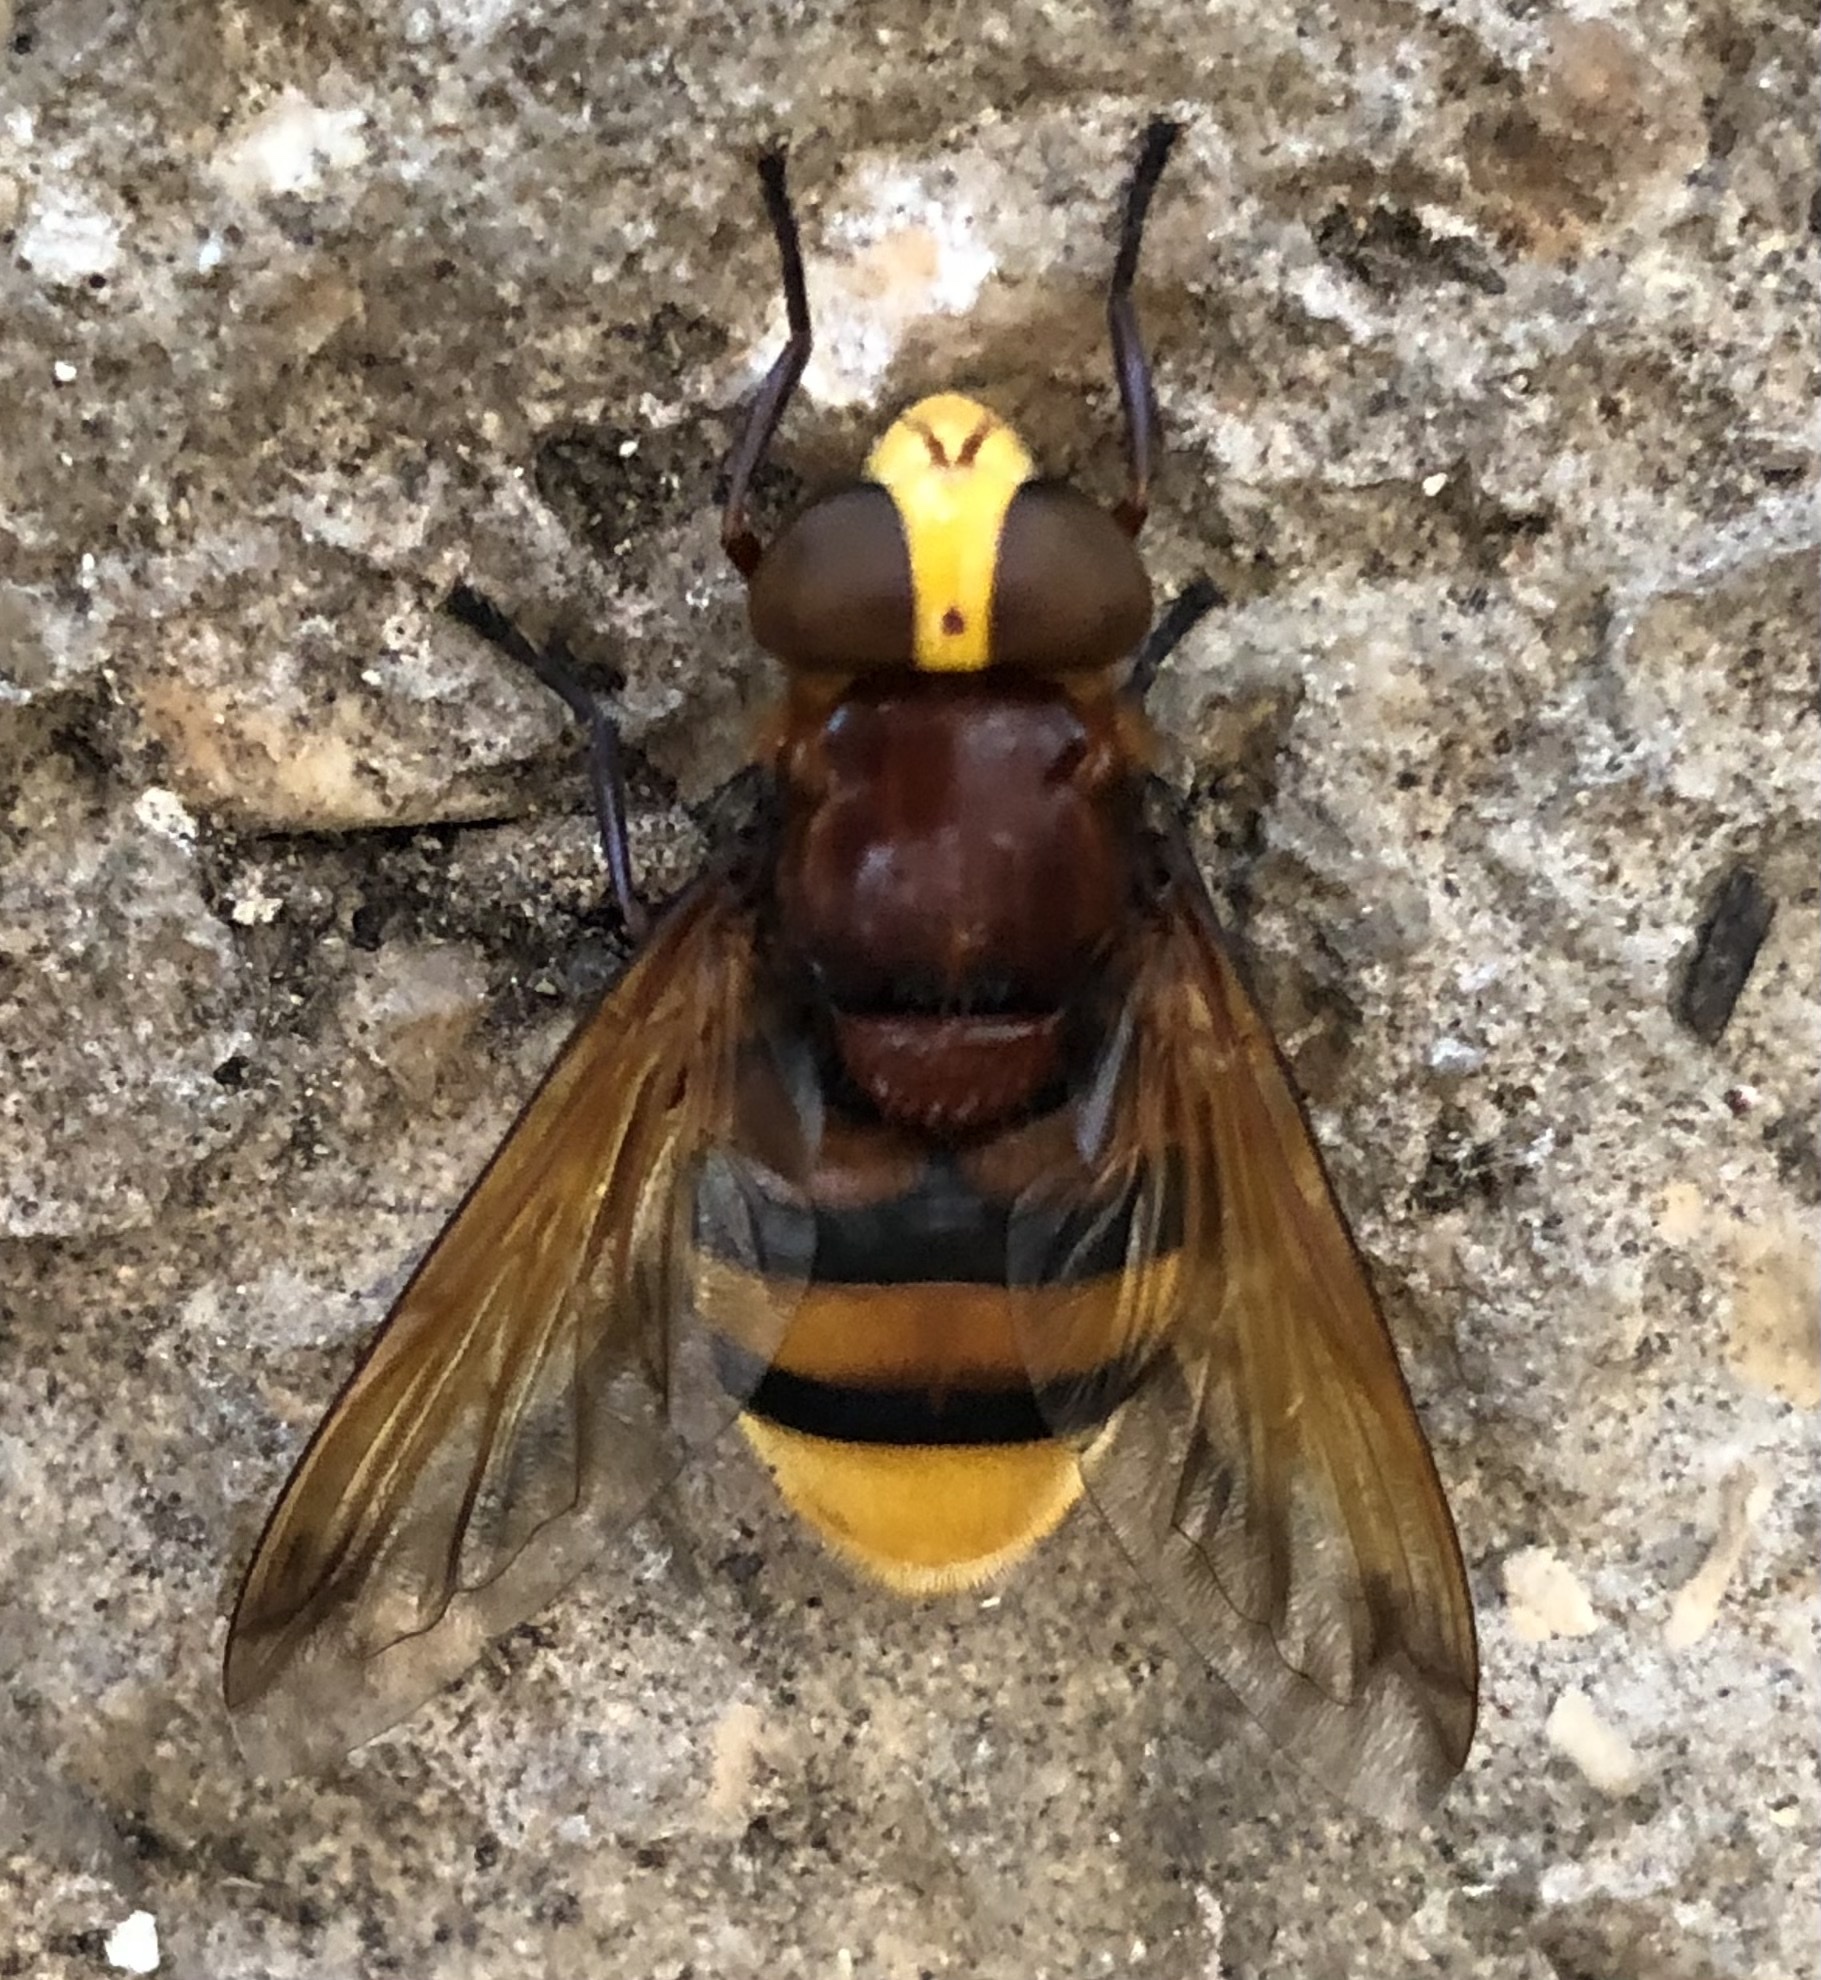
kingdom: Animalia
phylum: Arthropoda
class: Insecta
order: Diptera
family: Syrphidae
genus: Volucella
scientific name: Volucella zonaria
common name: Hornet hoverfly
